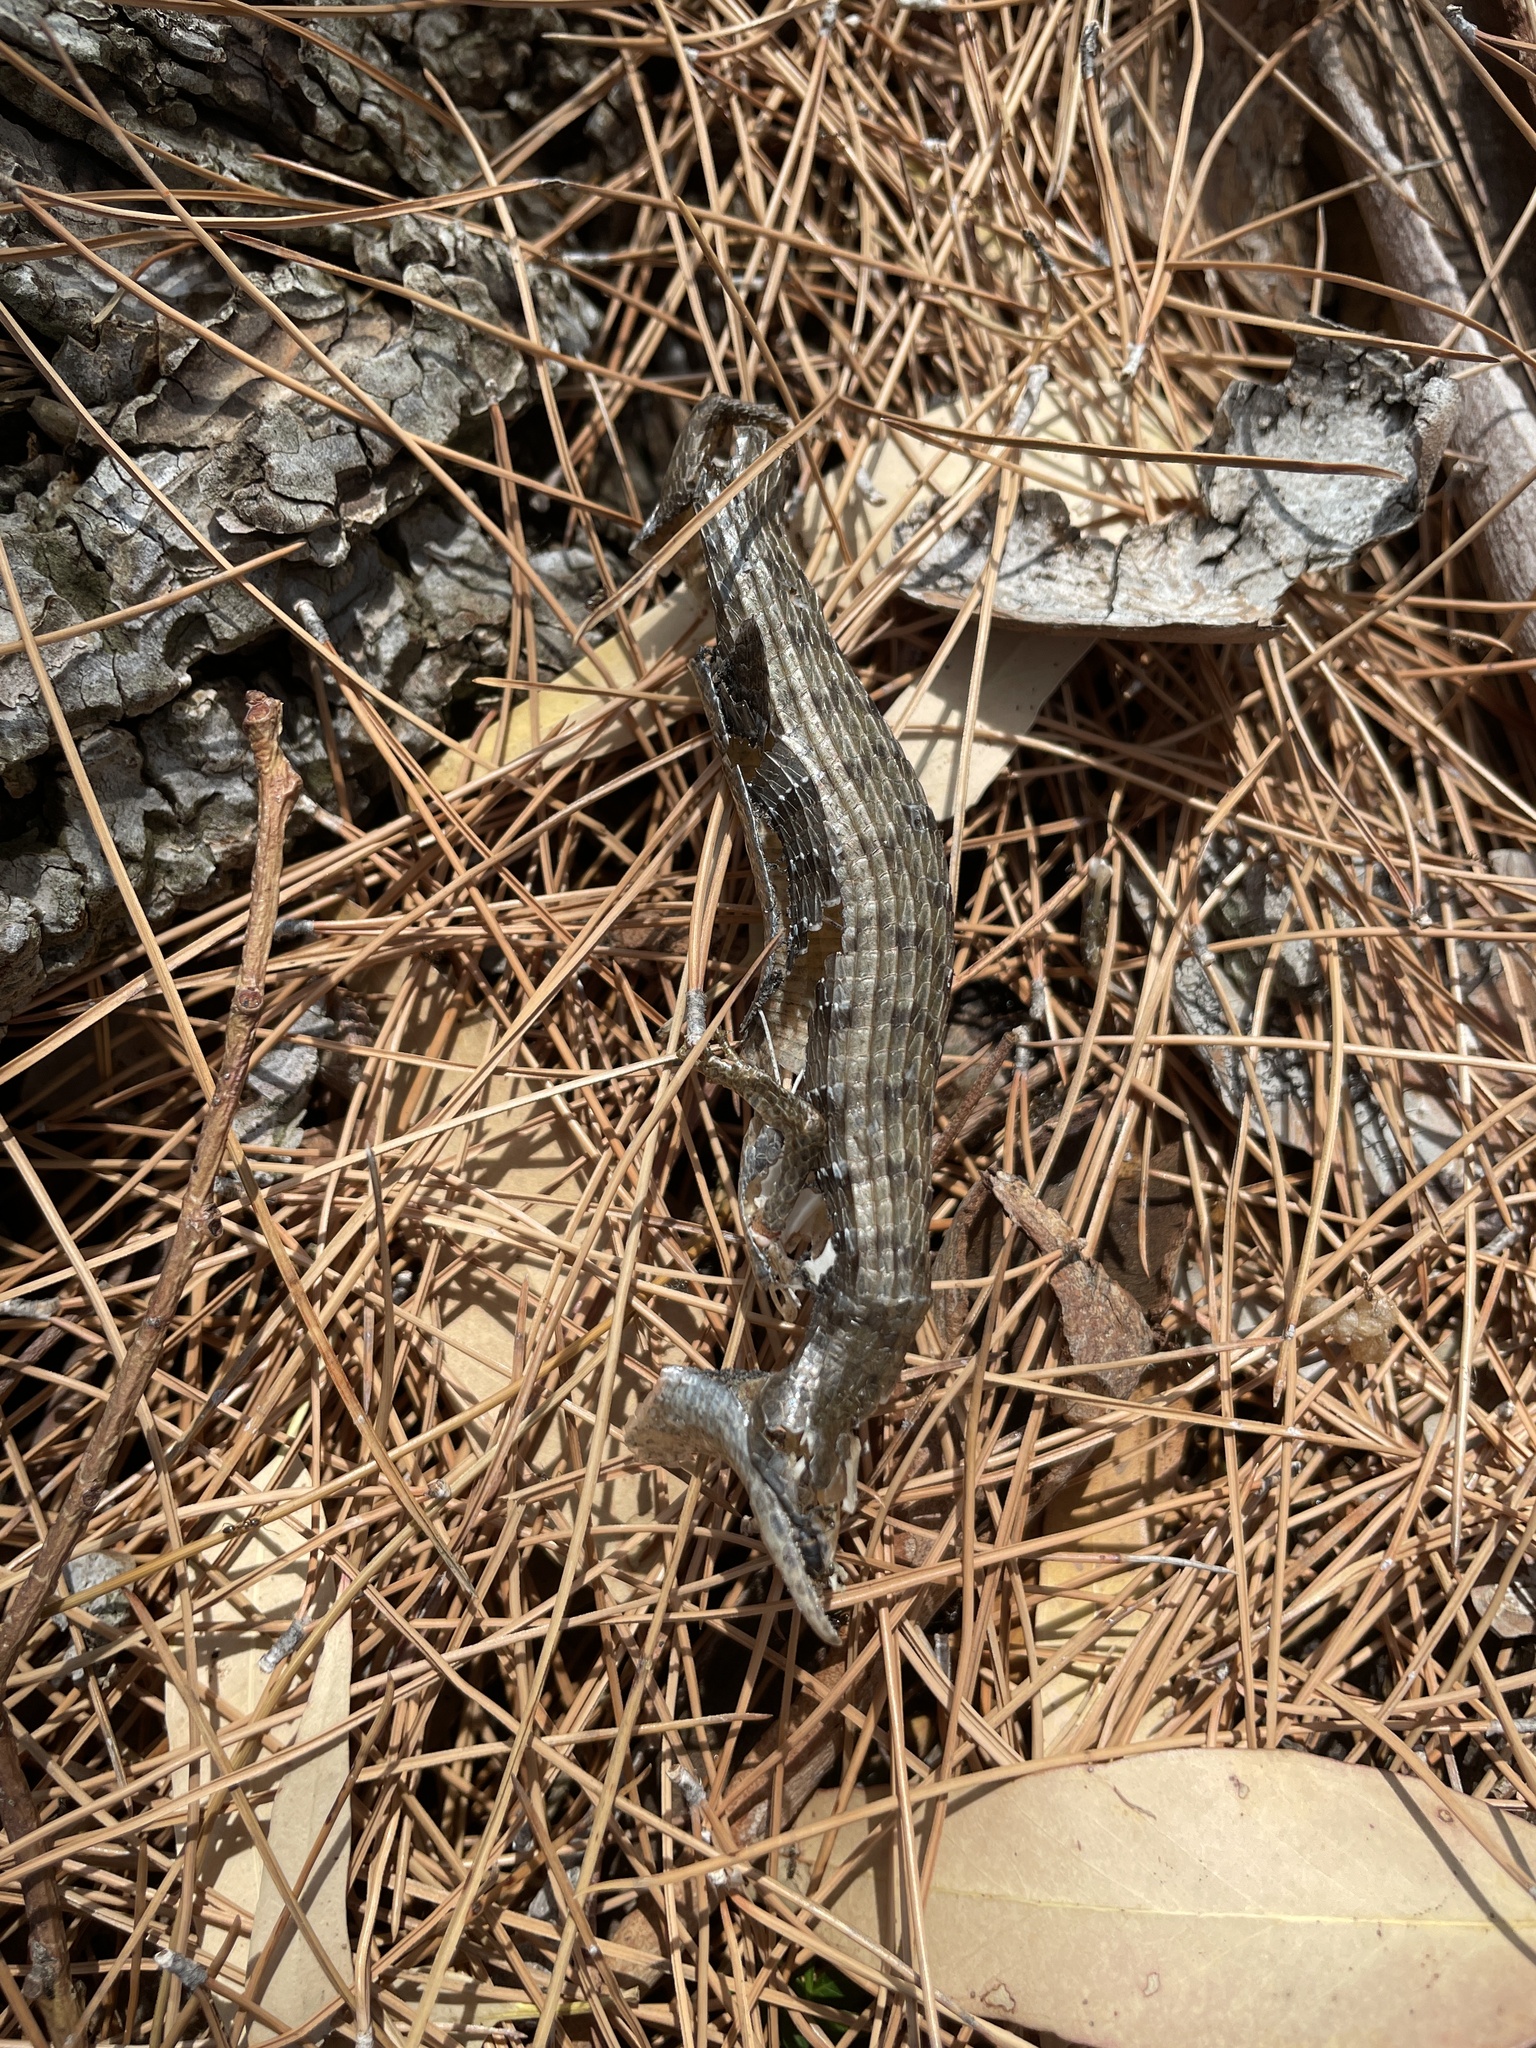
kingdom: Animalia
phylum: Chordata
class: Squamata
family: Anguidae
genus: Elgaria
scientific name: Elgaria multicarinata
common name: Southern alligator lizard
